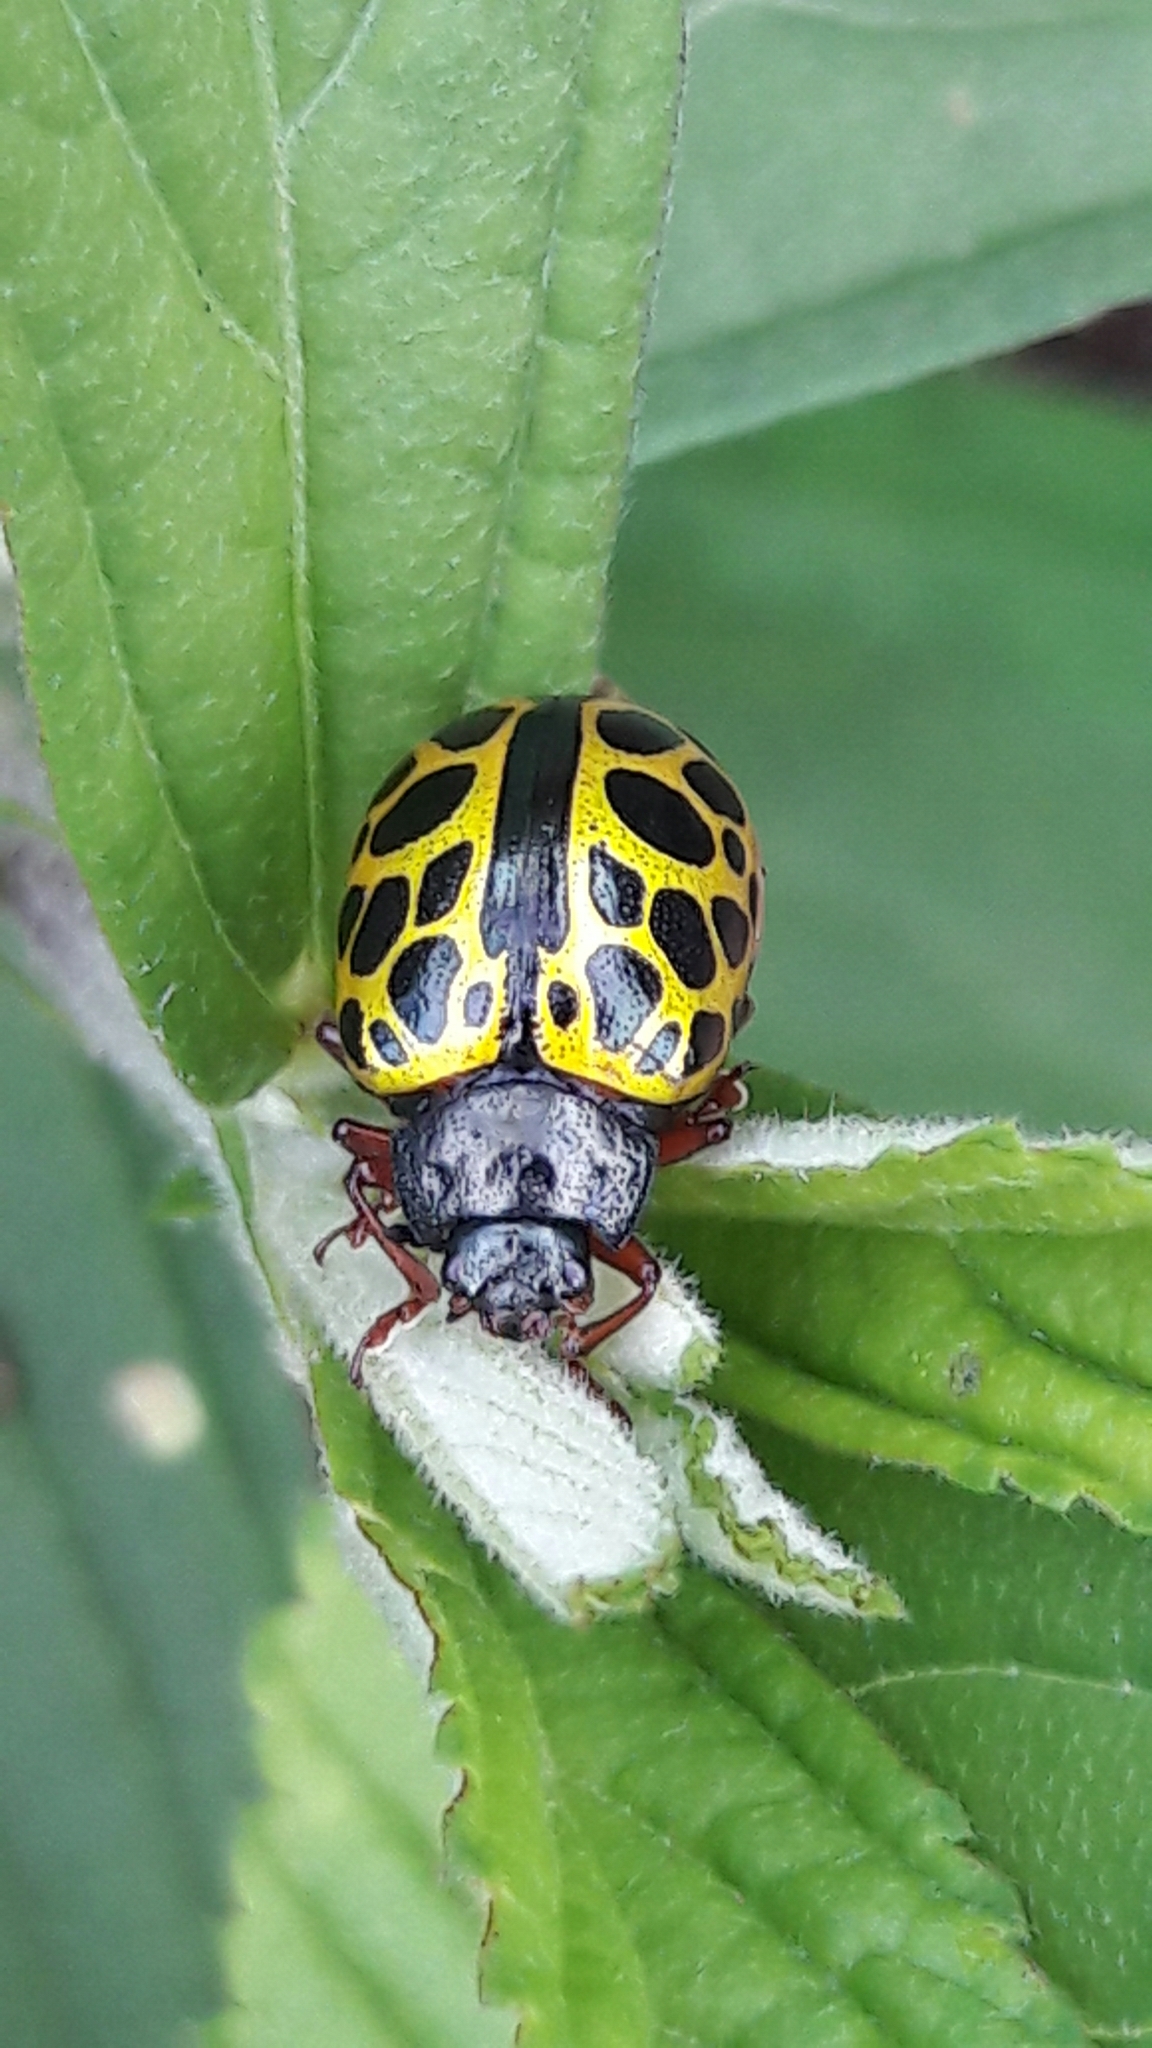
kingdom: Animalia
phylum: Arthropoda
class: Insecta
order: Coleoptera
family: Chrysomelidae
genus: Calligrapha
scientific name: Calligrapha polyspila
